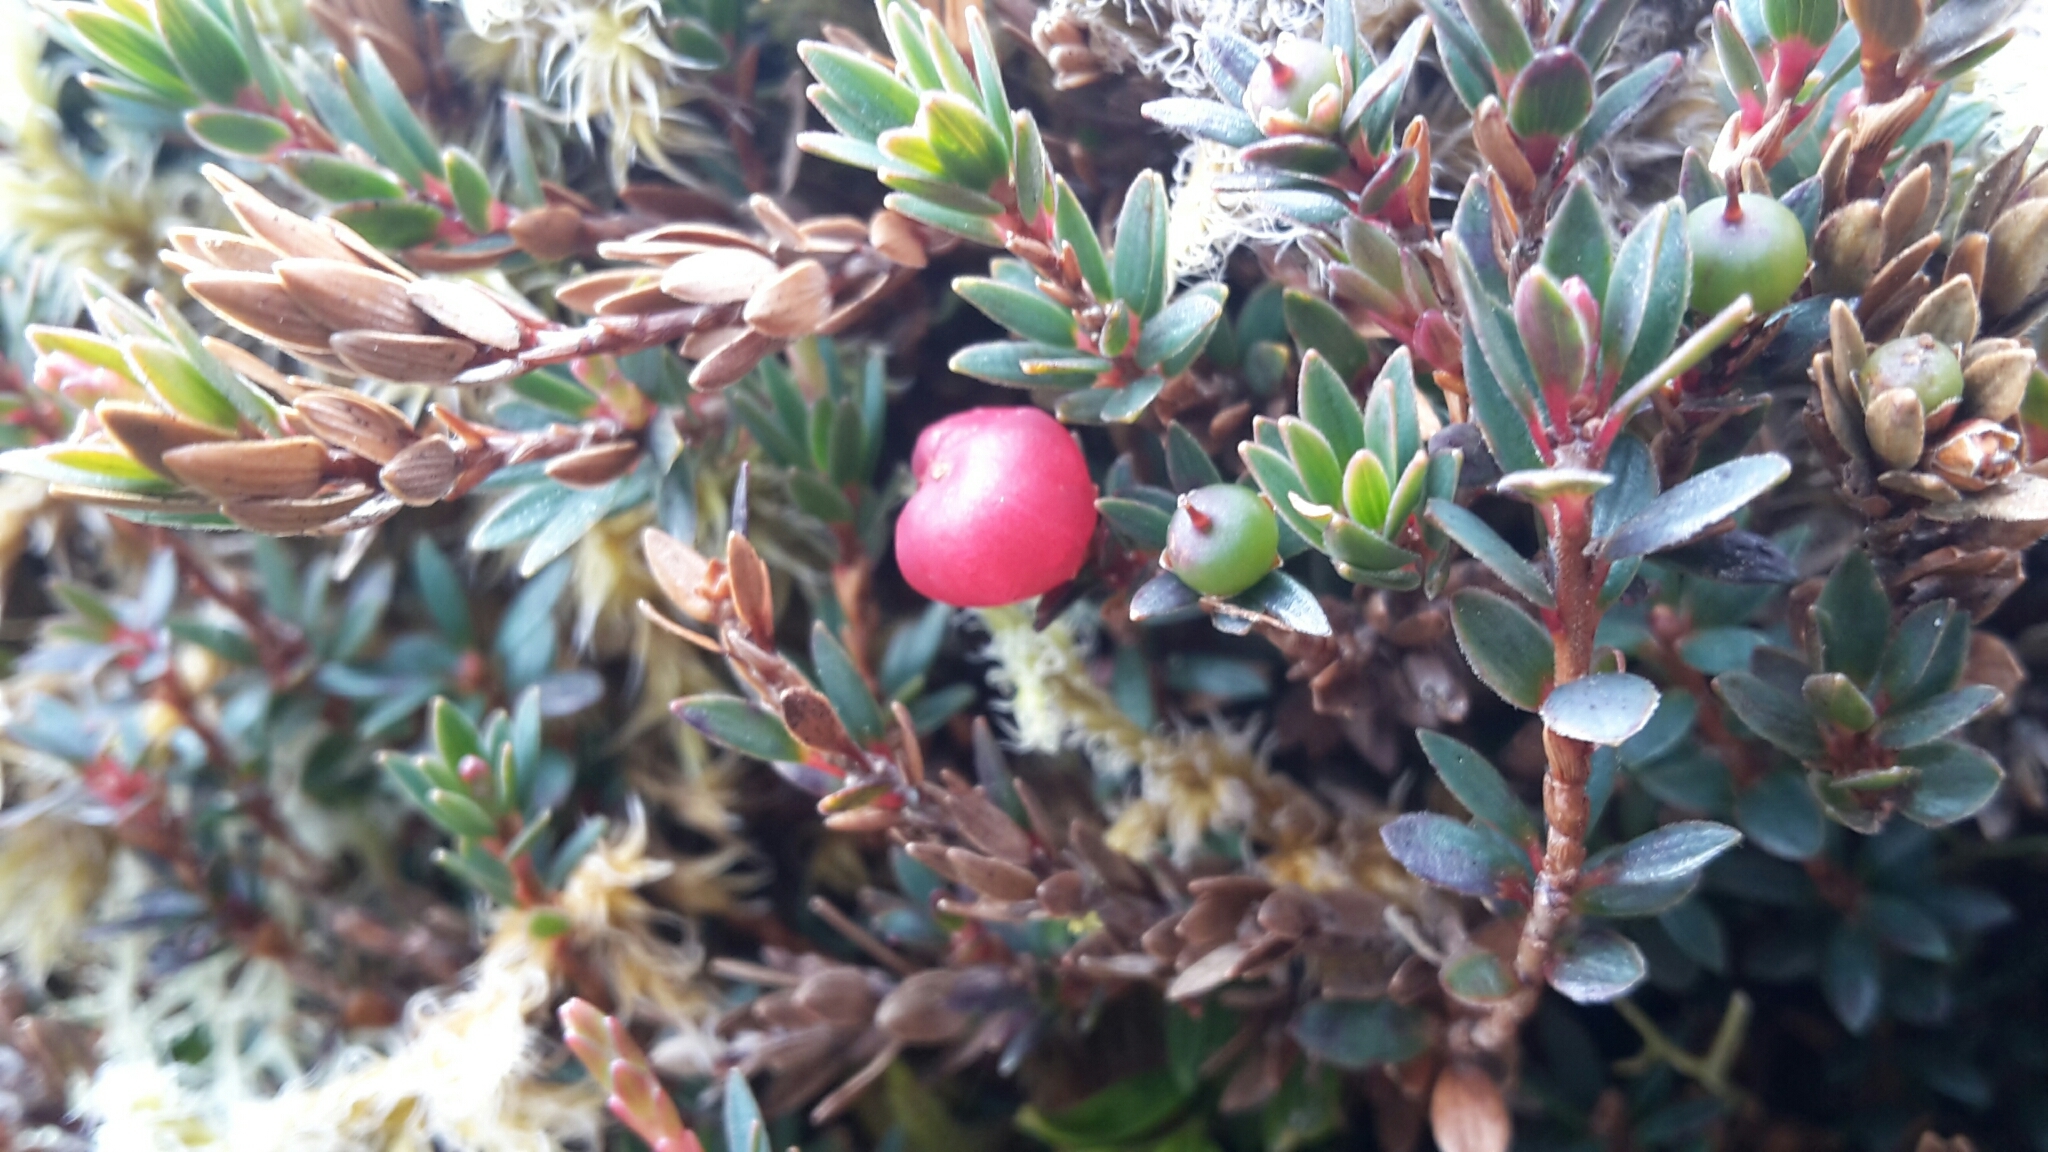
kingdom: Plantae
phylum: Tracheophyta
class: Magnoliopsida
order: Ericales
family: Ericaceae
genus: Pentachondra
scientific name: Pentachondra pumila
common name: Carpet-heath
